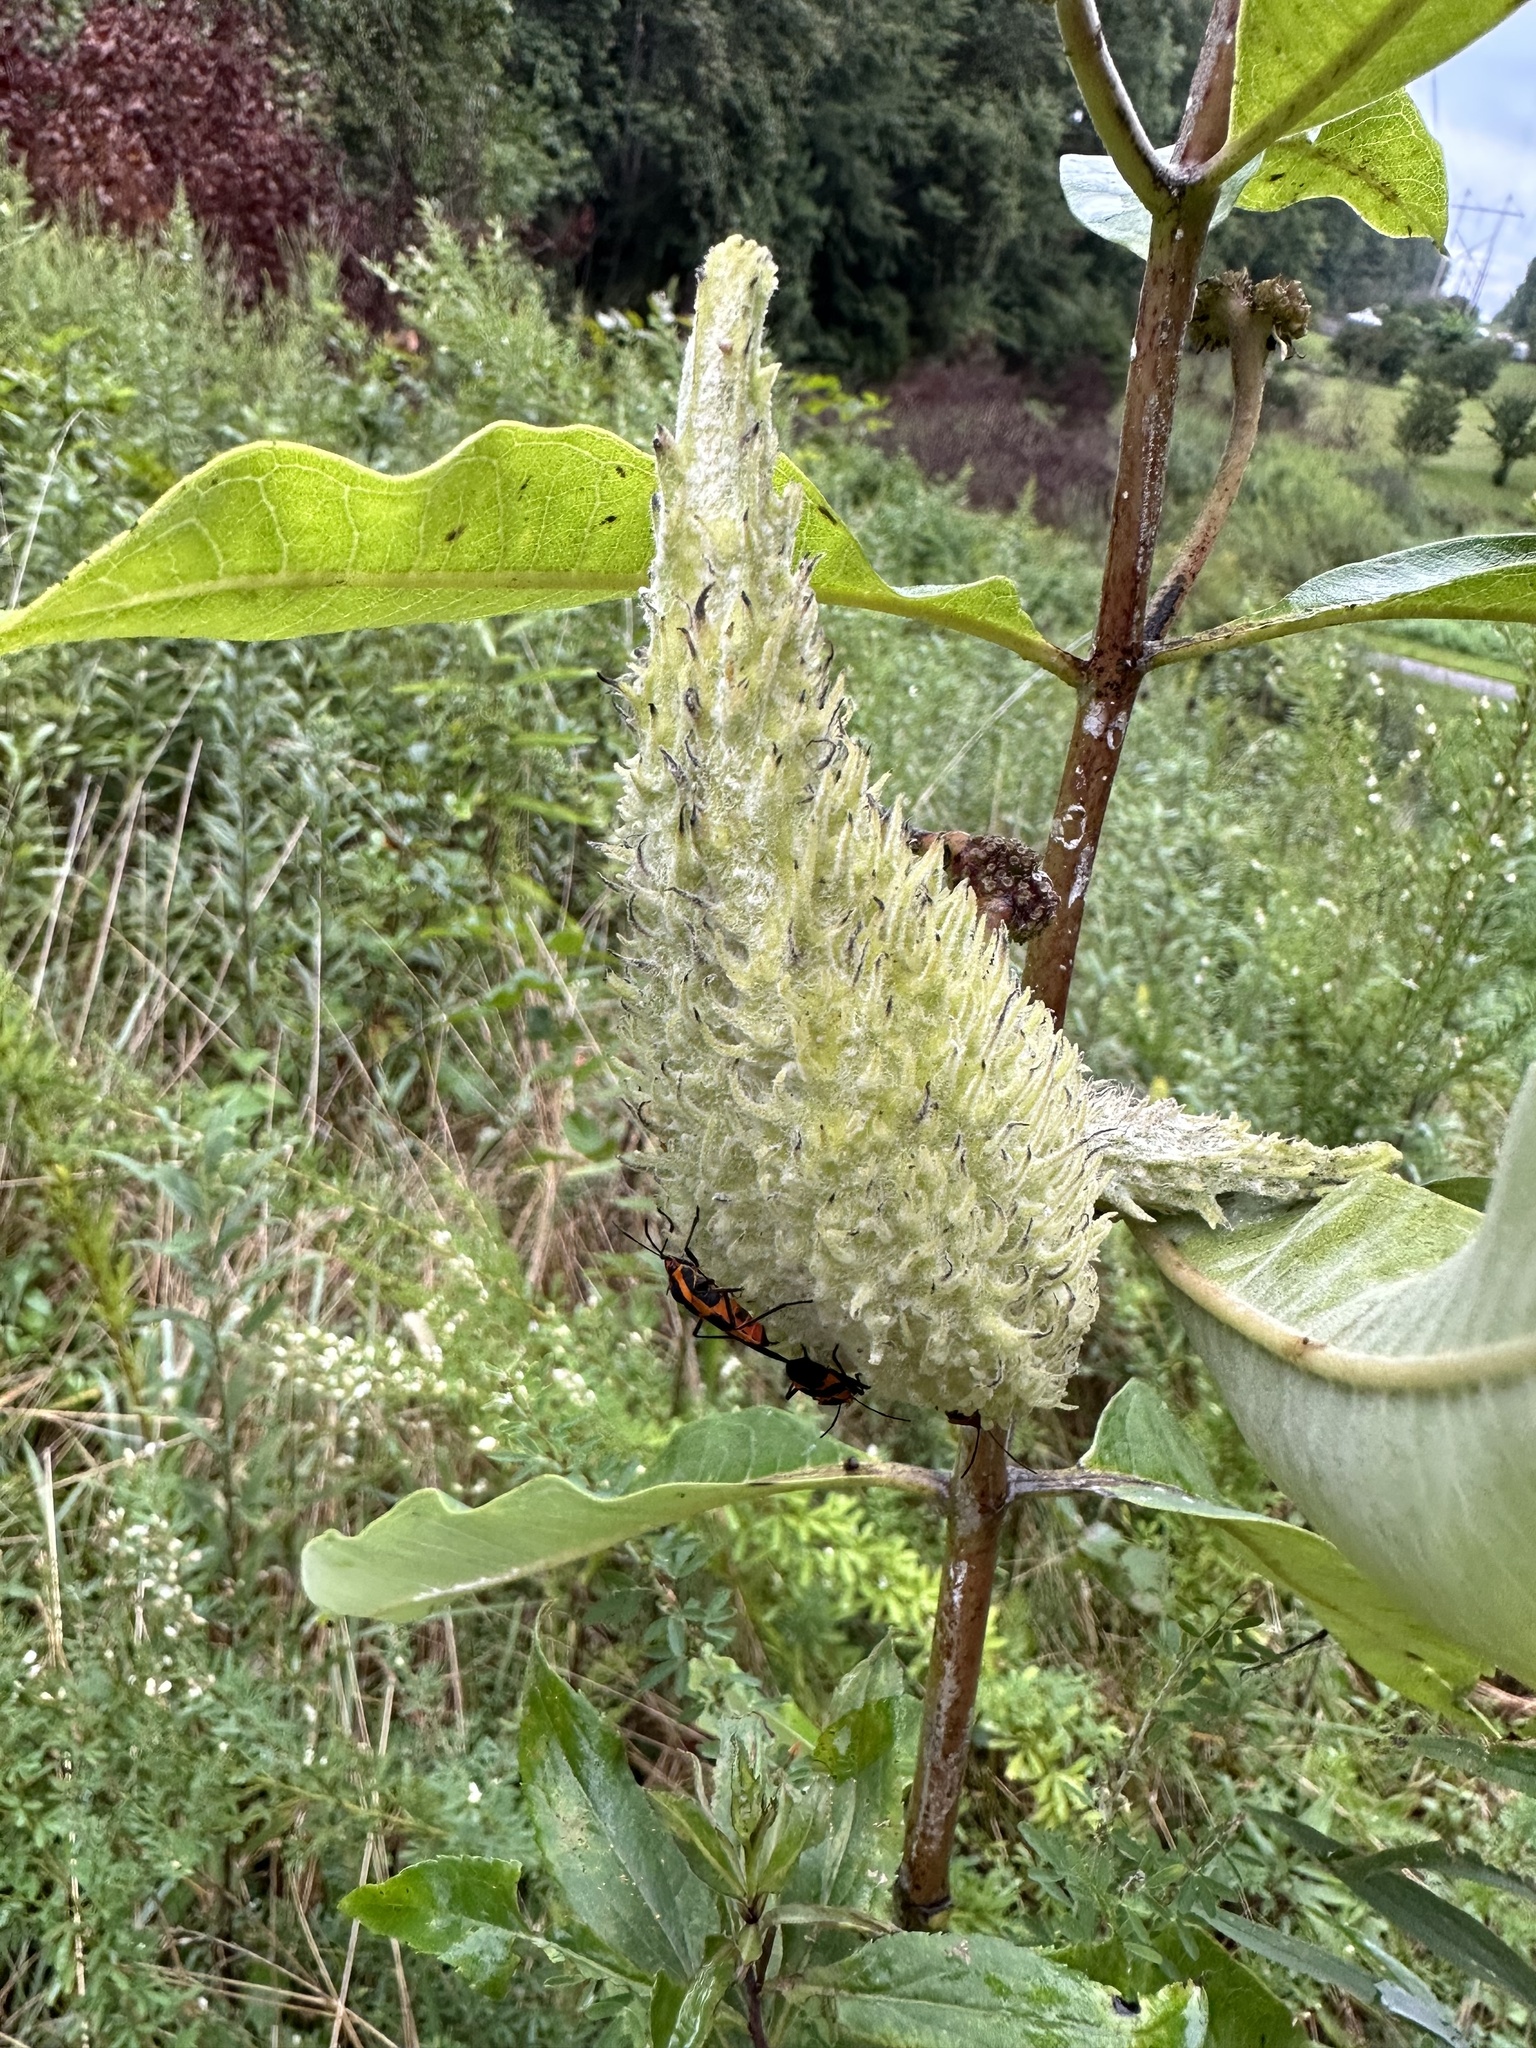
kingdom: Plantae
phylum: Tracheophyta
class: Magnoliopsida
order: Gentianales
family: Apocynaceae
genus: Asclepias
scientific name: Asclepias syriaca
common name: Common milkweed
